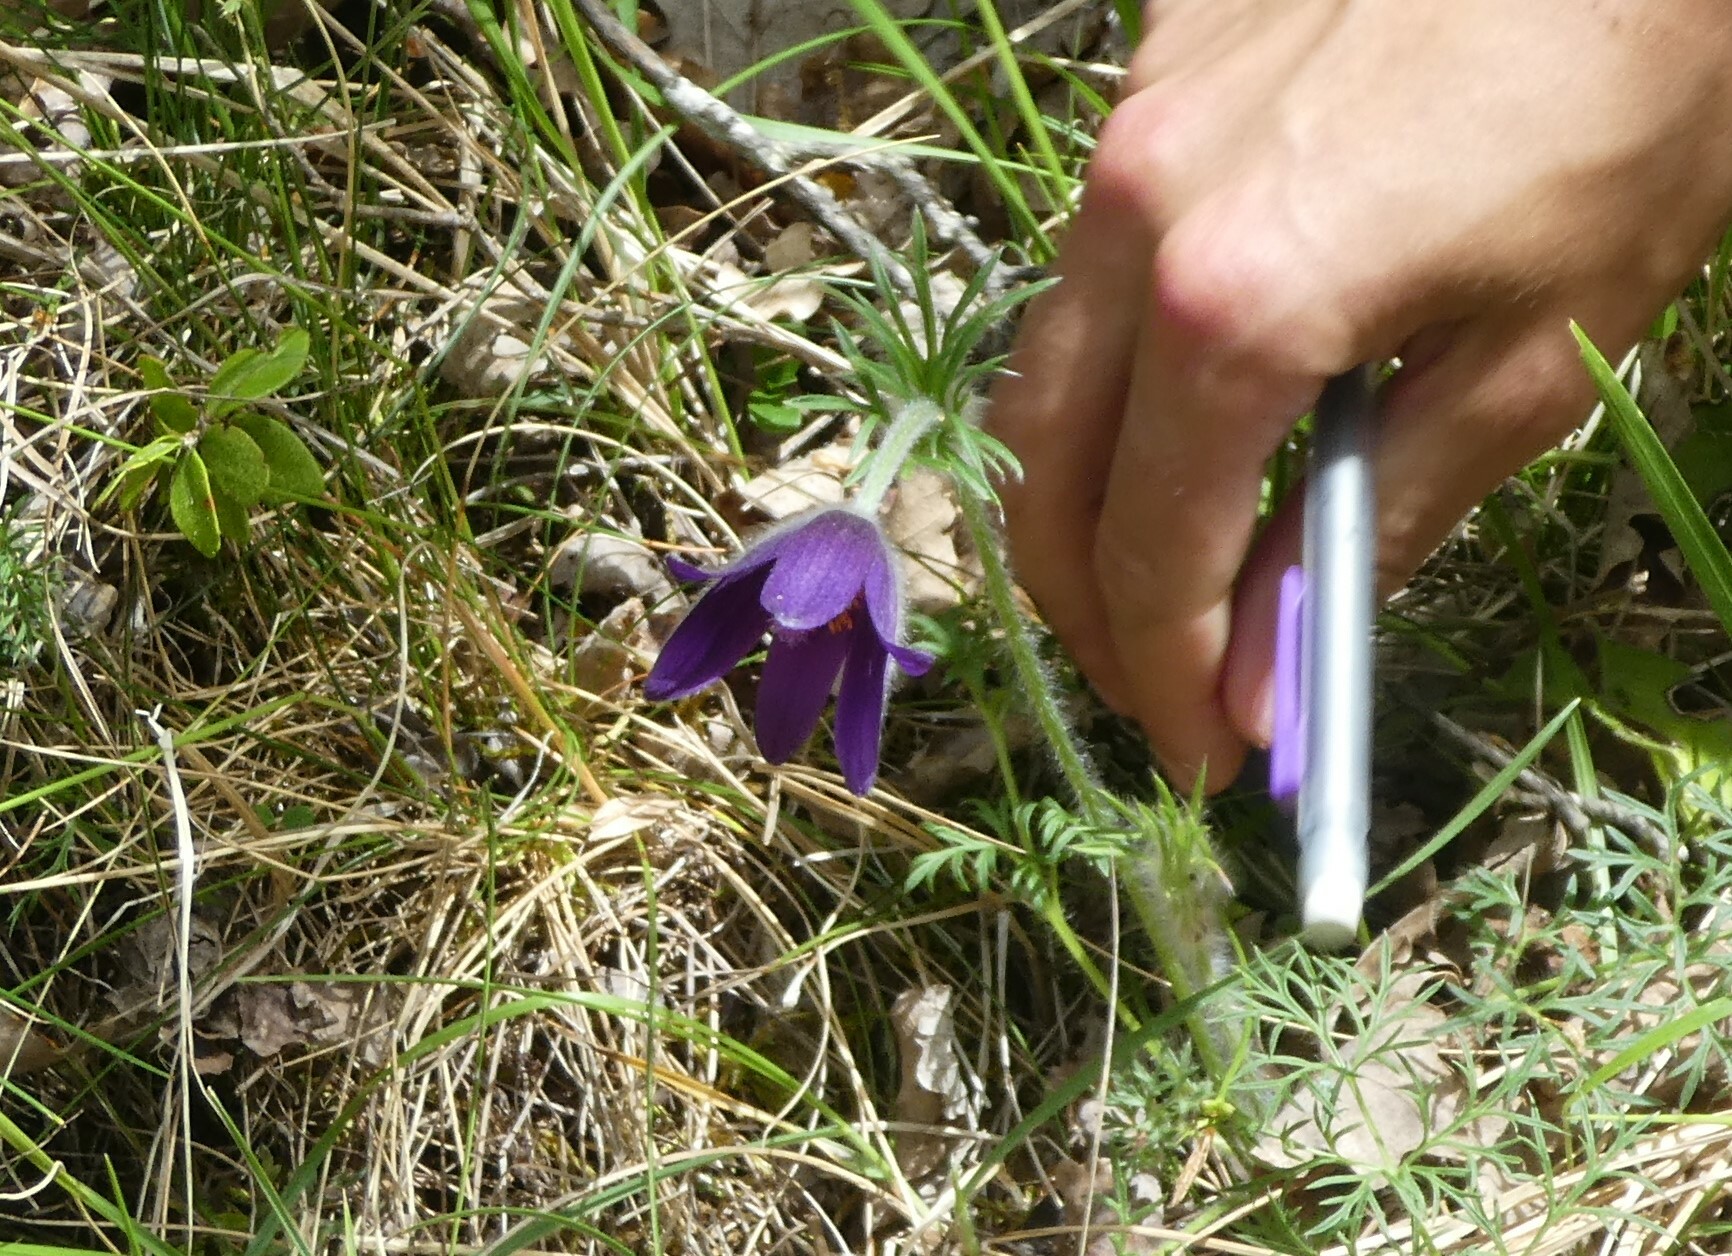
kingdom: Plantae
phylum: Tracheophyta
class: Magnoliopsida
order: Ranunculales
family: Ranunculaceae
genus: Pulsatilla
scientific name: Pulsatilla vulgaris
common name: Pasqueflower
